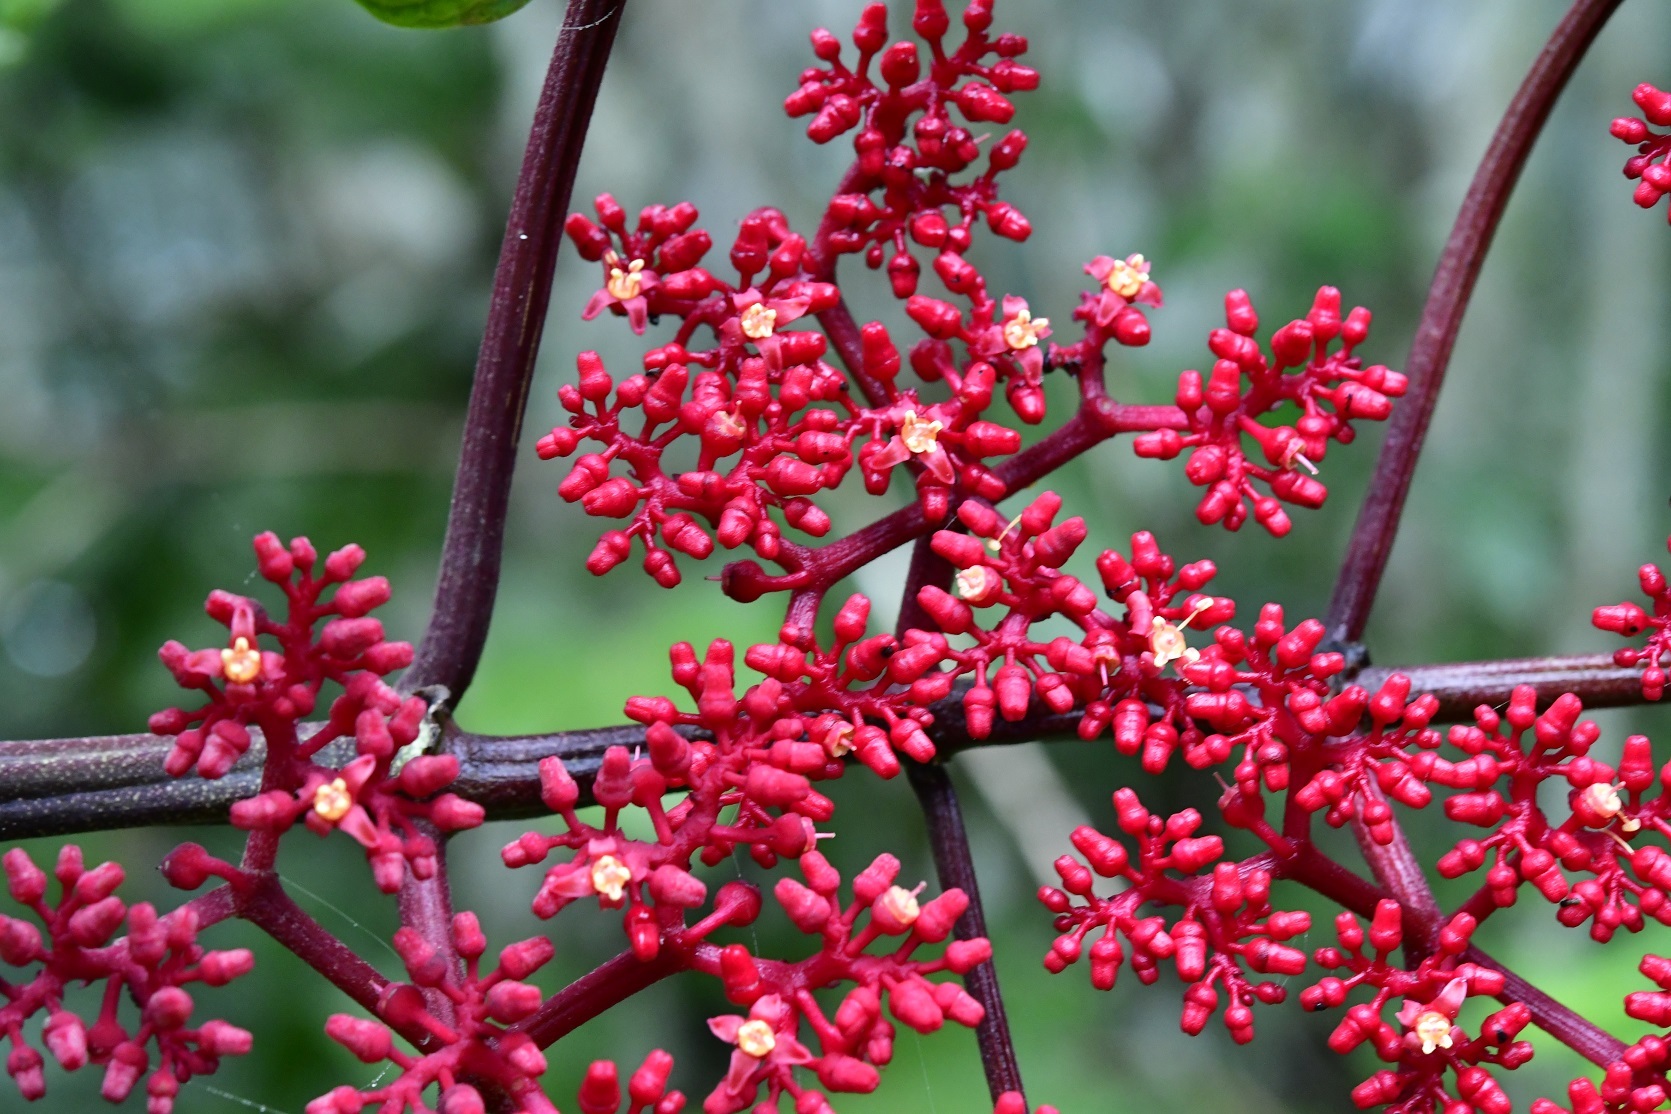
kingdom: Plantae
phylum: Tracheophyta
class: Magnoliopsida
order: Vitales
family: Vitaceae
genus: Cissus
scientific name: Cissus biformifolia
